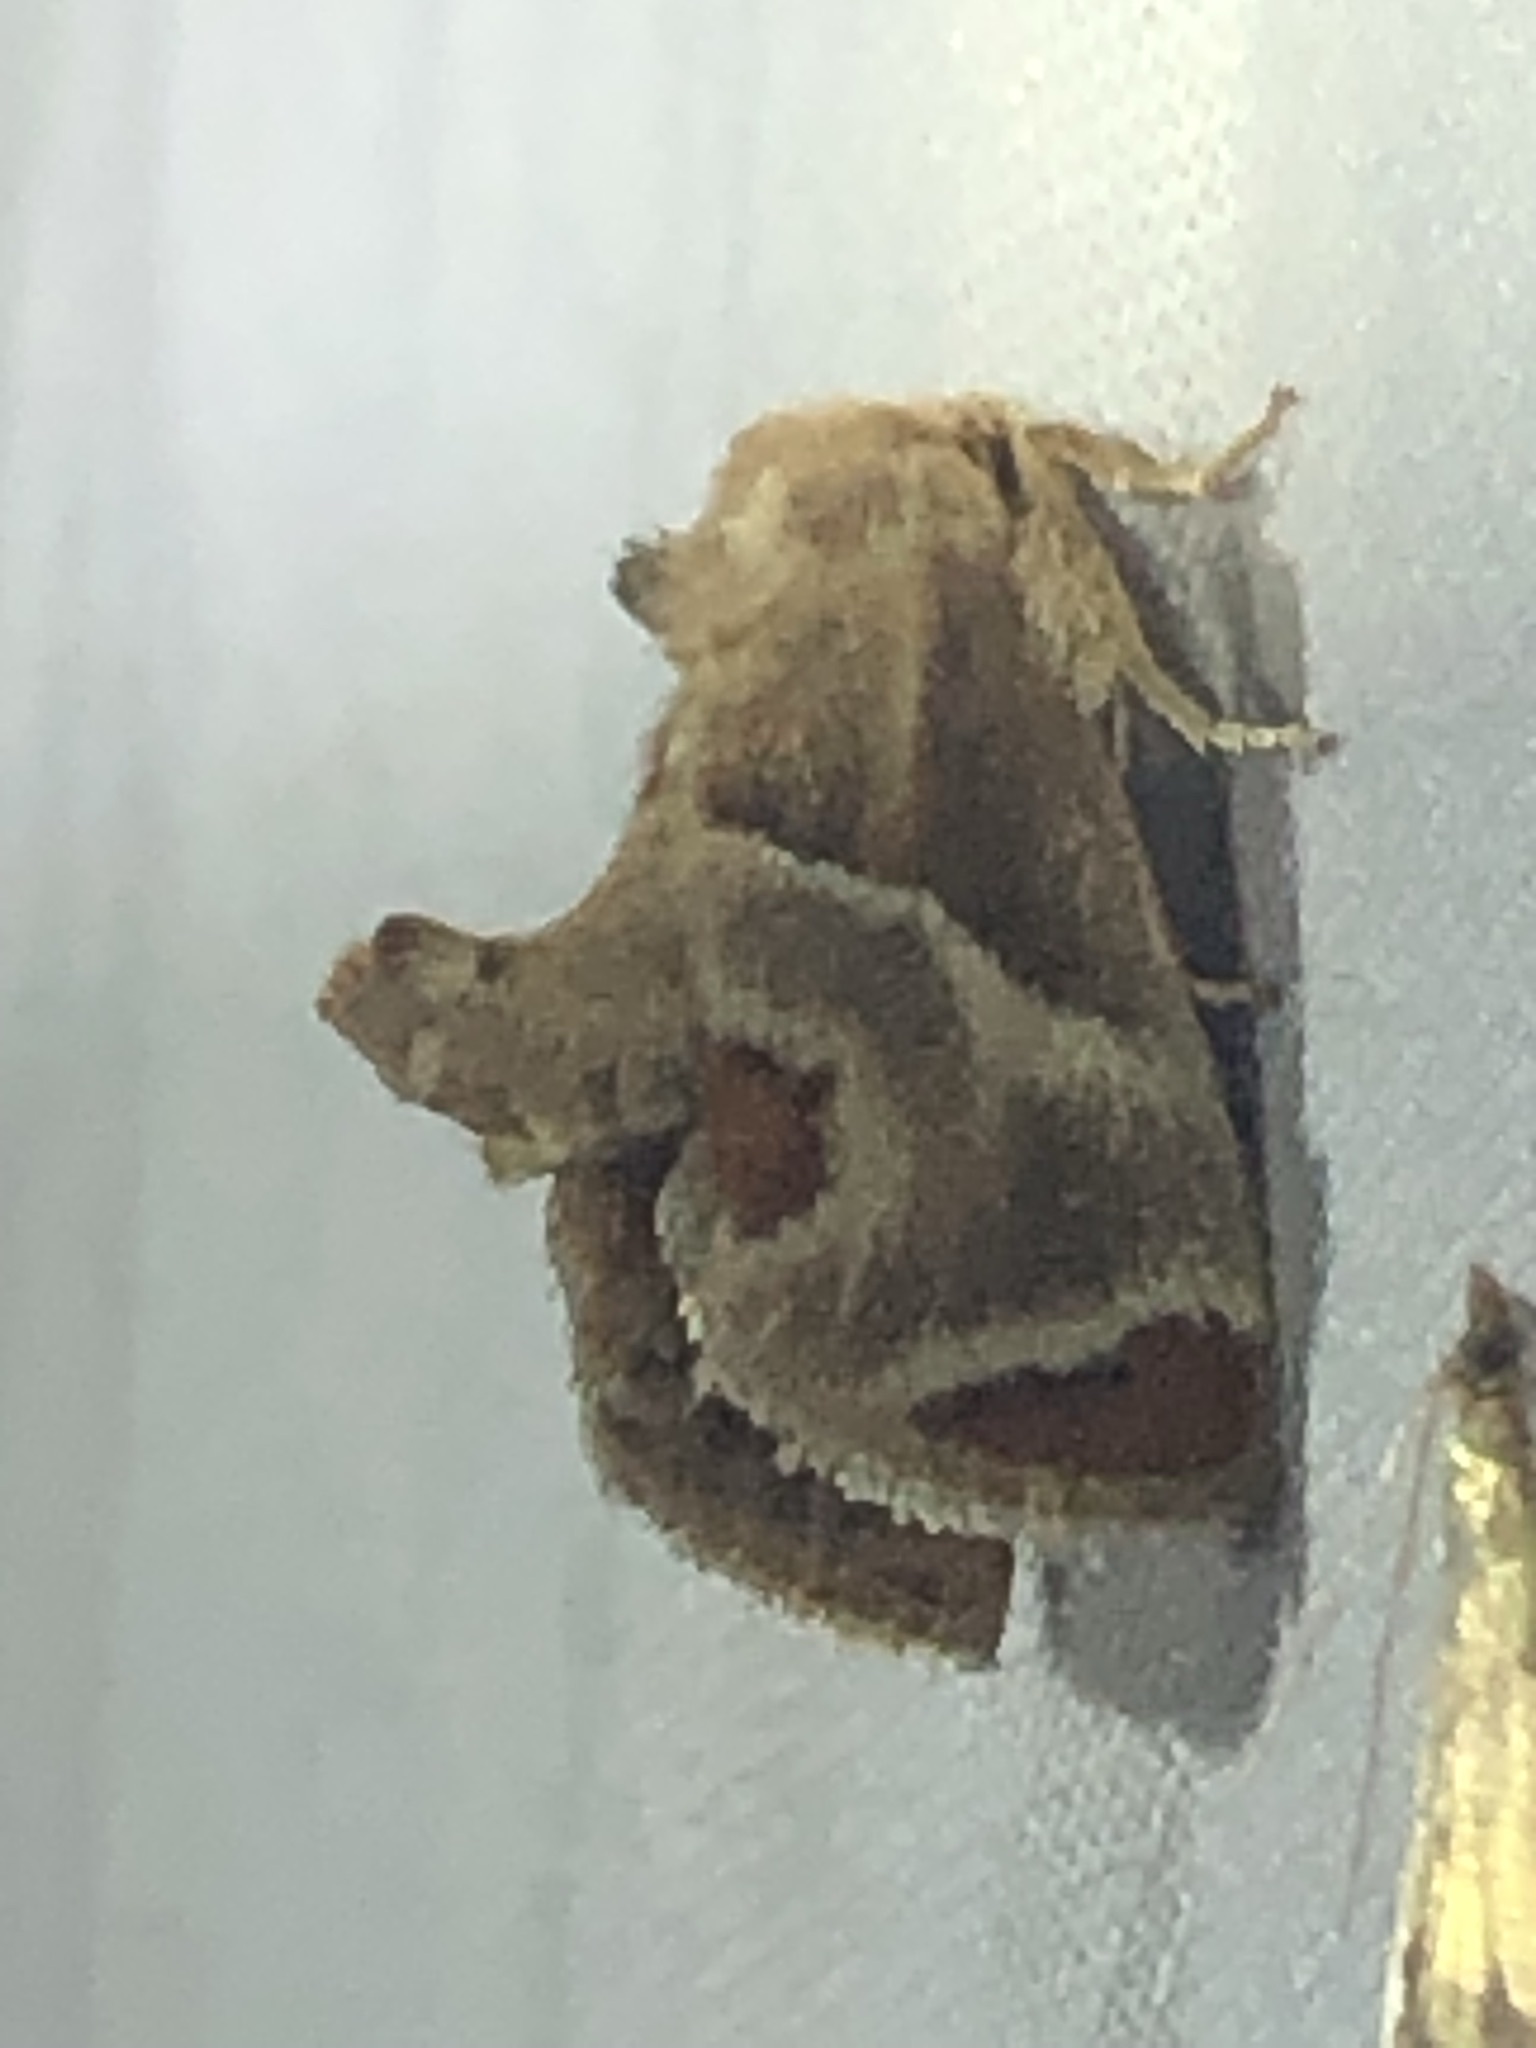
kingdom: Animalia
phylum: Arthropoda
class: Insecta
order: Lepidoptera
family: Limacodidae
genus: Apoda
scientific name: Apoda biguttata
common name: Shagreened slug moth
